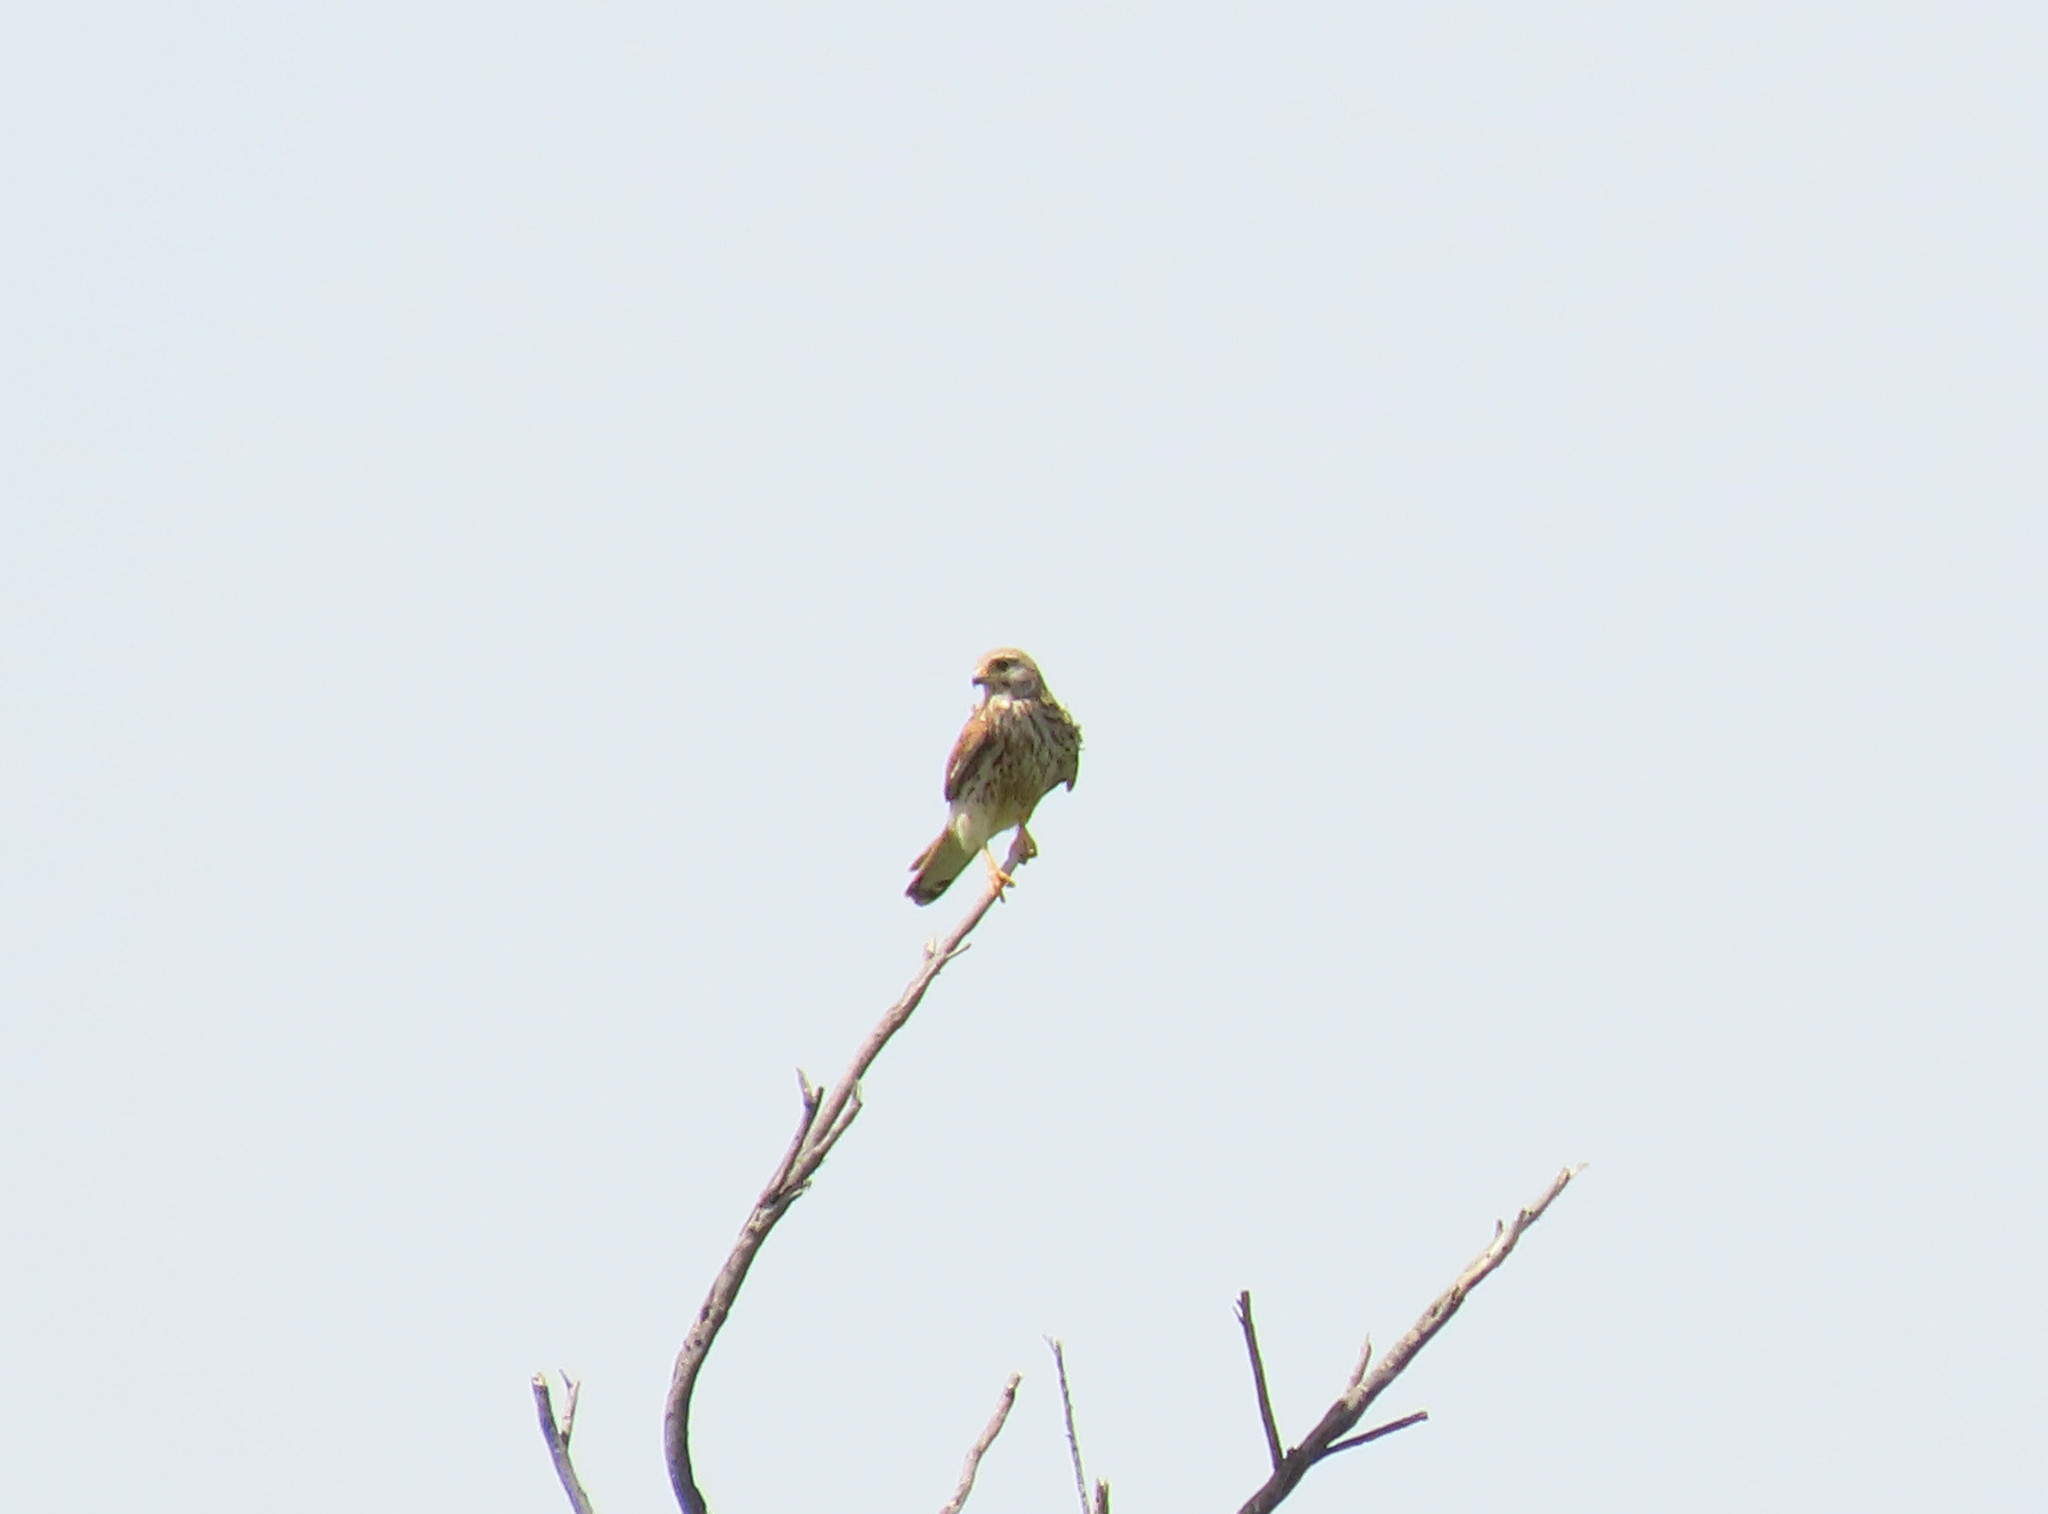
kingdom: Animalia
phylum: Chordata
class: Aves
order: Falconiformes
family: Falconidae
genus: Falco
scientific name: Falco tinnunculus
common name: Common kestrel
